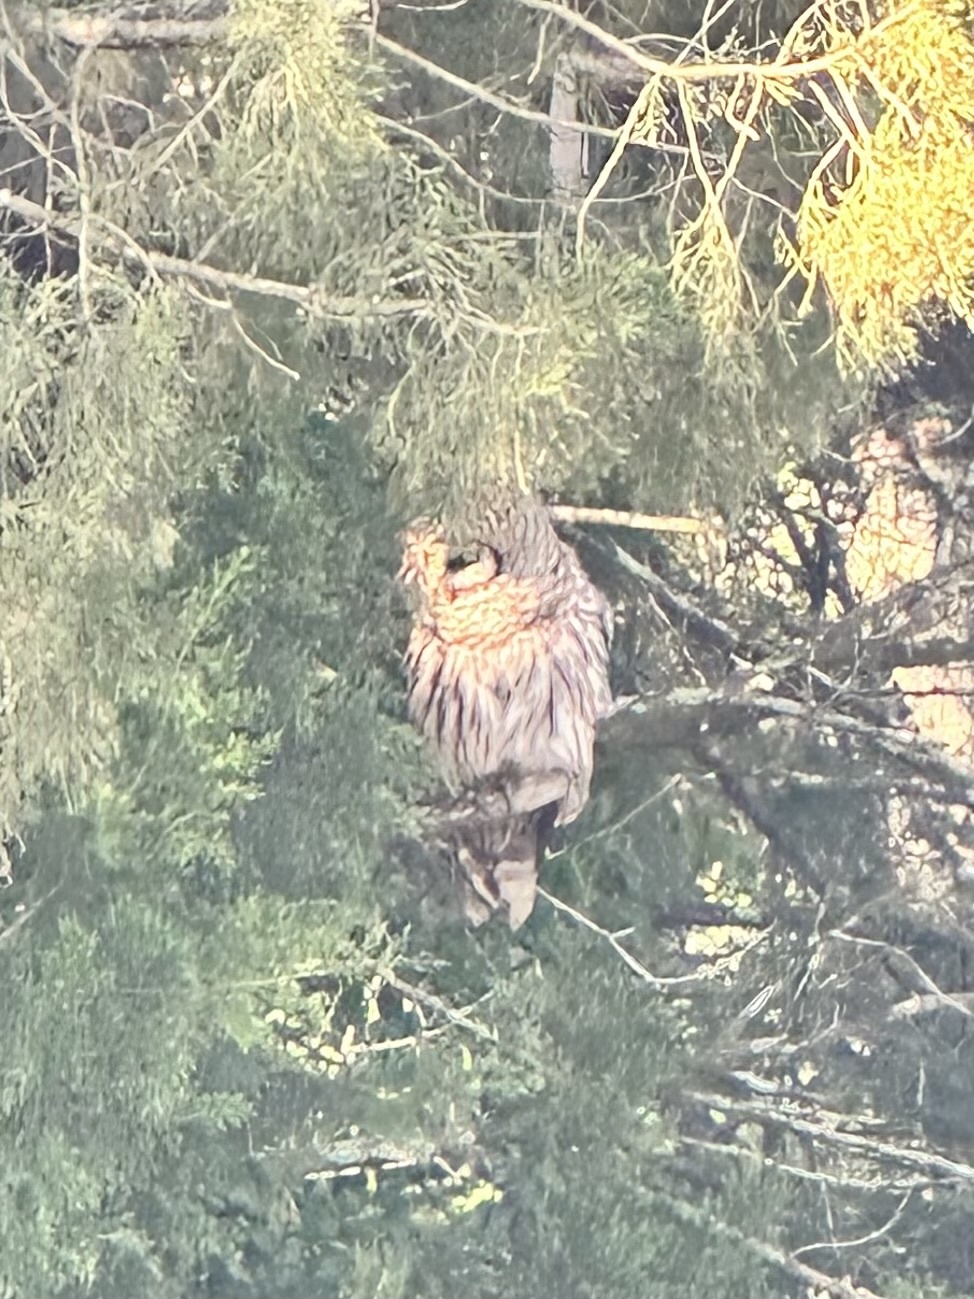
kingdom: Animalia
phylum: Chordata
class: Aves
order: Strigiformes
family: Strigidae
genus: Strix
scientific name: Strix varia
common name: Barred owl
